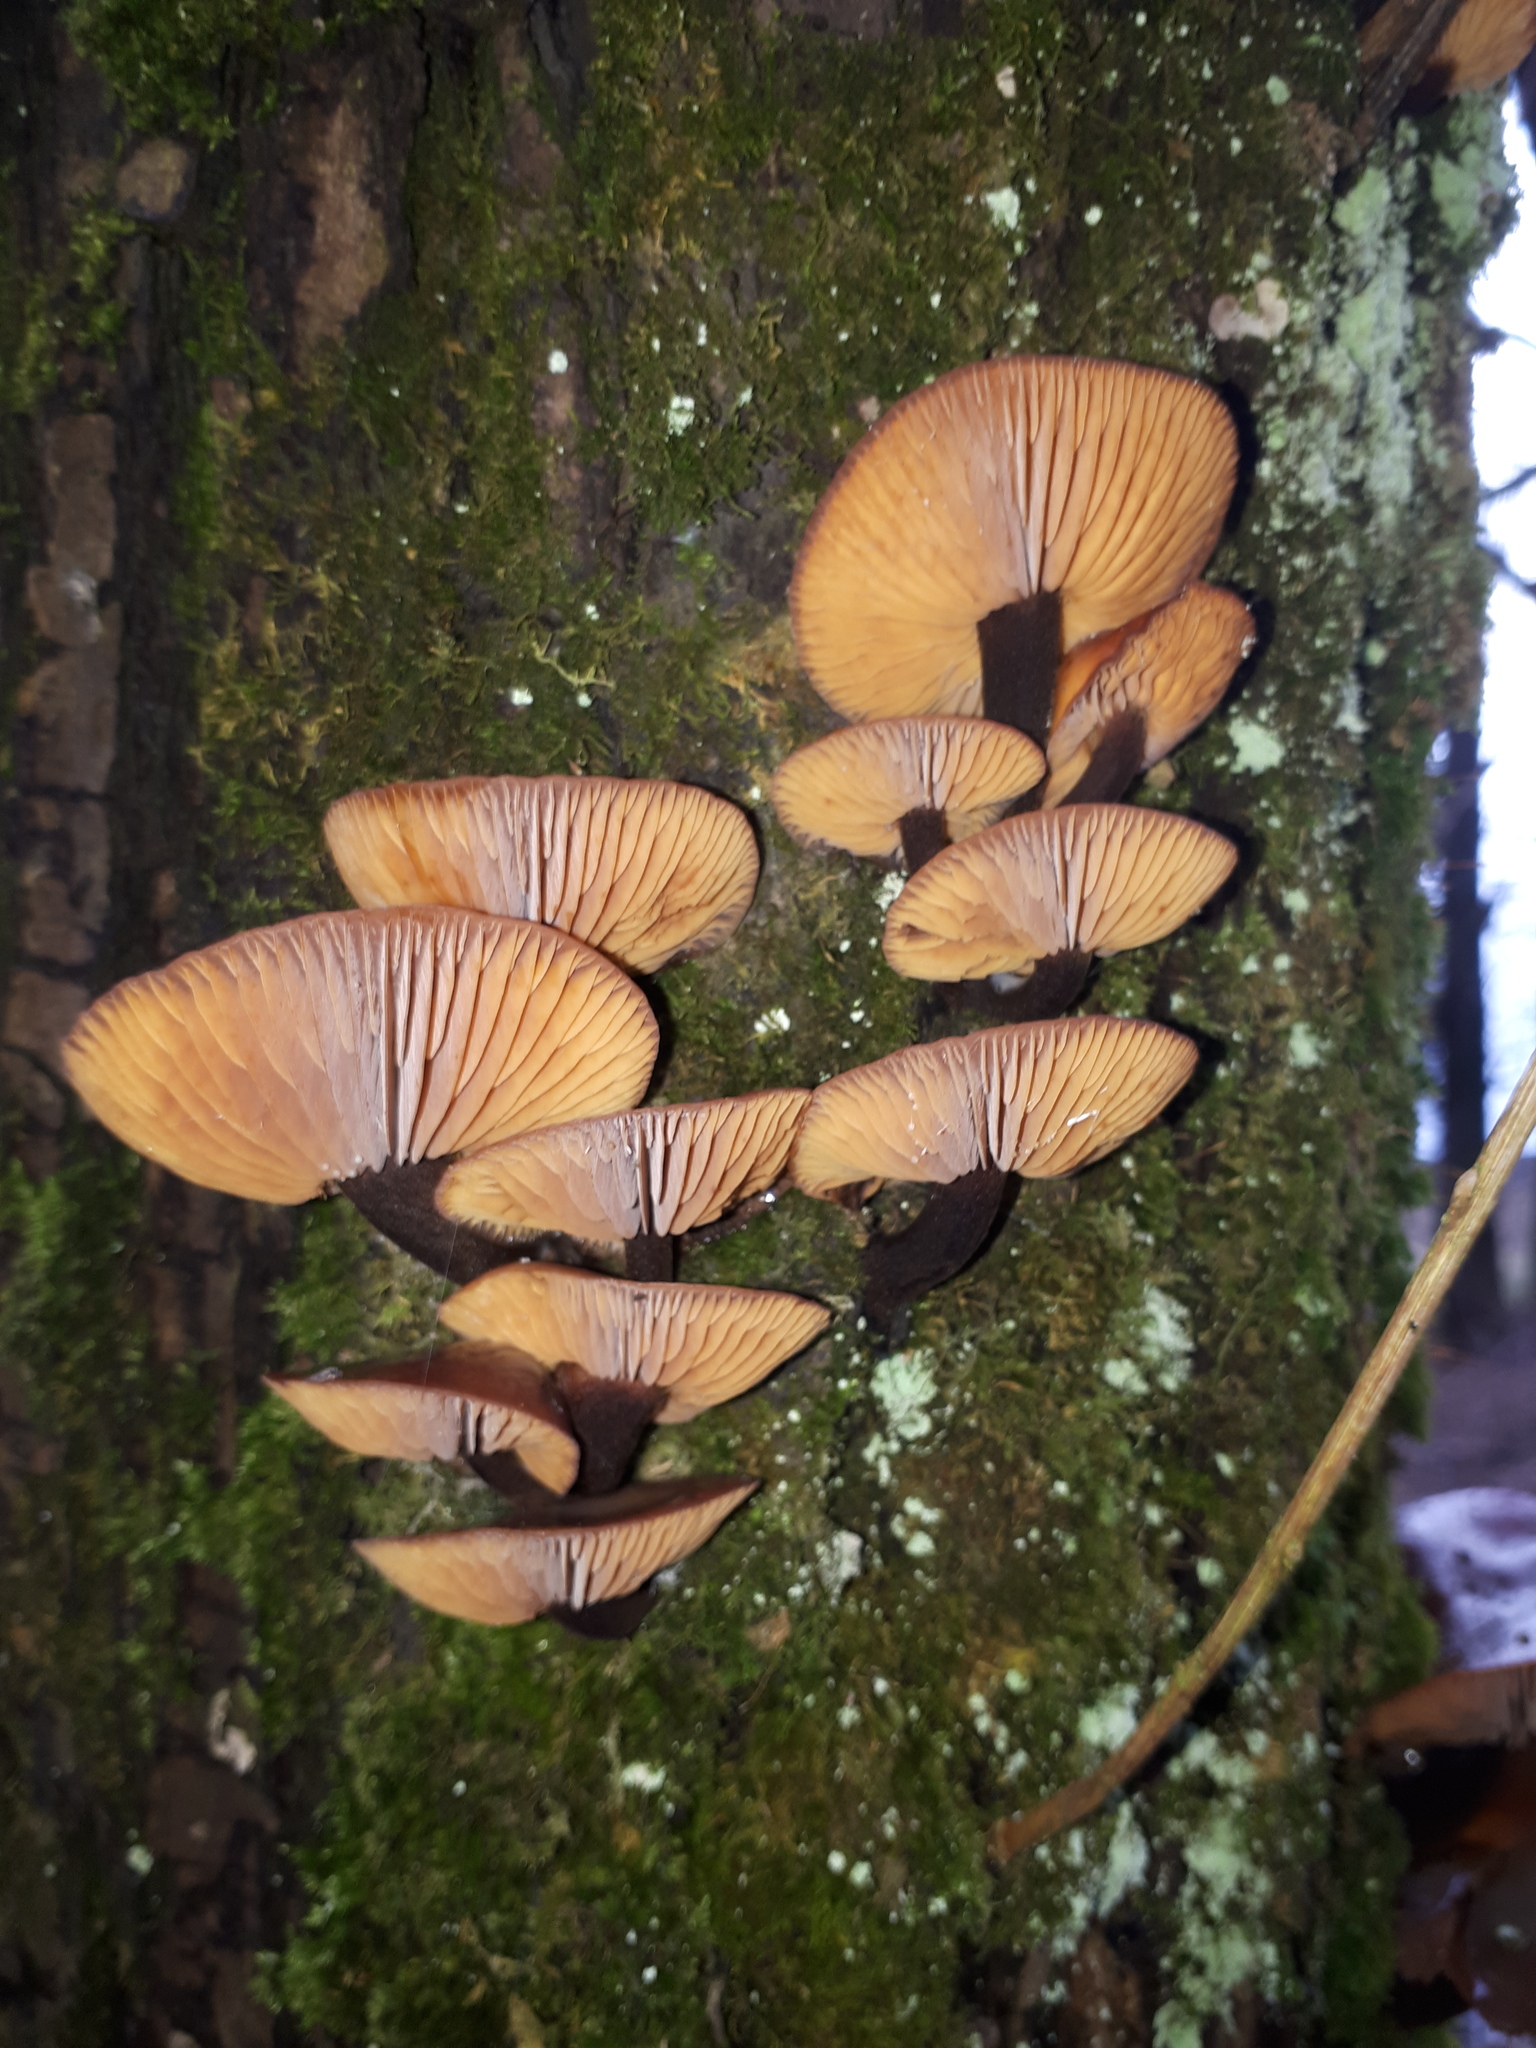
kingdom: Fungi
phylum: Basidiomycota
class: Agaricomycetes
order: Agaricales
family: Physalacriaceae
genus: Flammulina
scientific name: Flammulina
